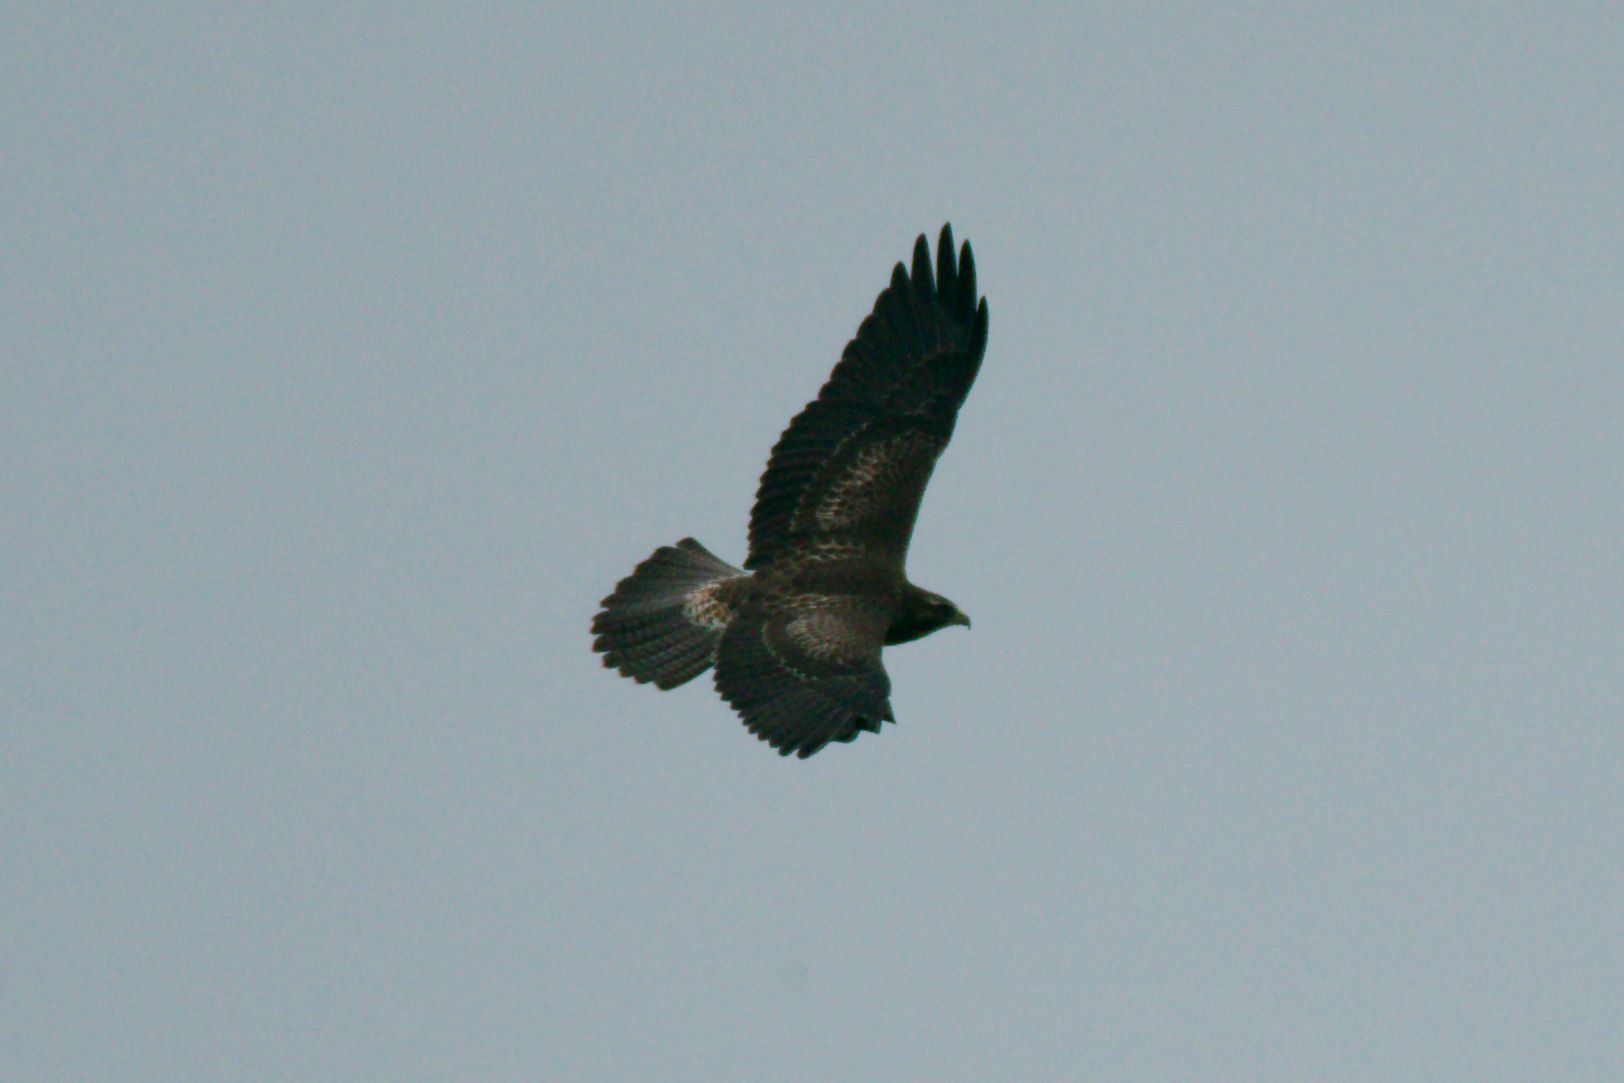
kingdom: Animalia
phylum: Chordata
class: Aves
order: Accipitriformes
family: Accipitridae
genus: Buteo
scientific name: Buteo swainsoni
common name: Swainson's hawk
